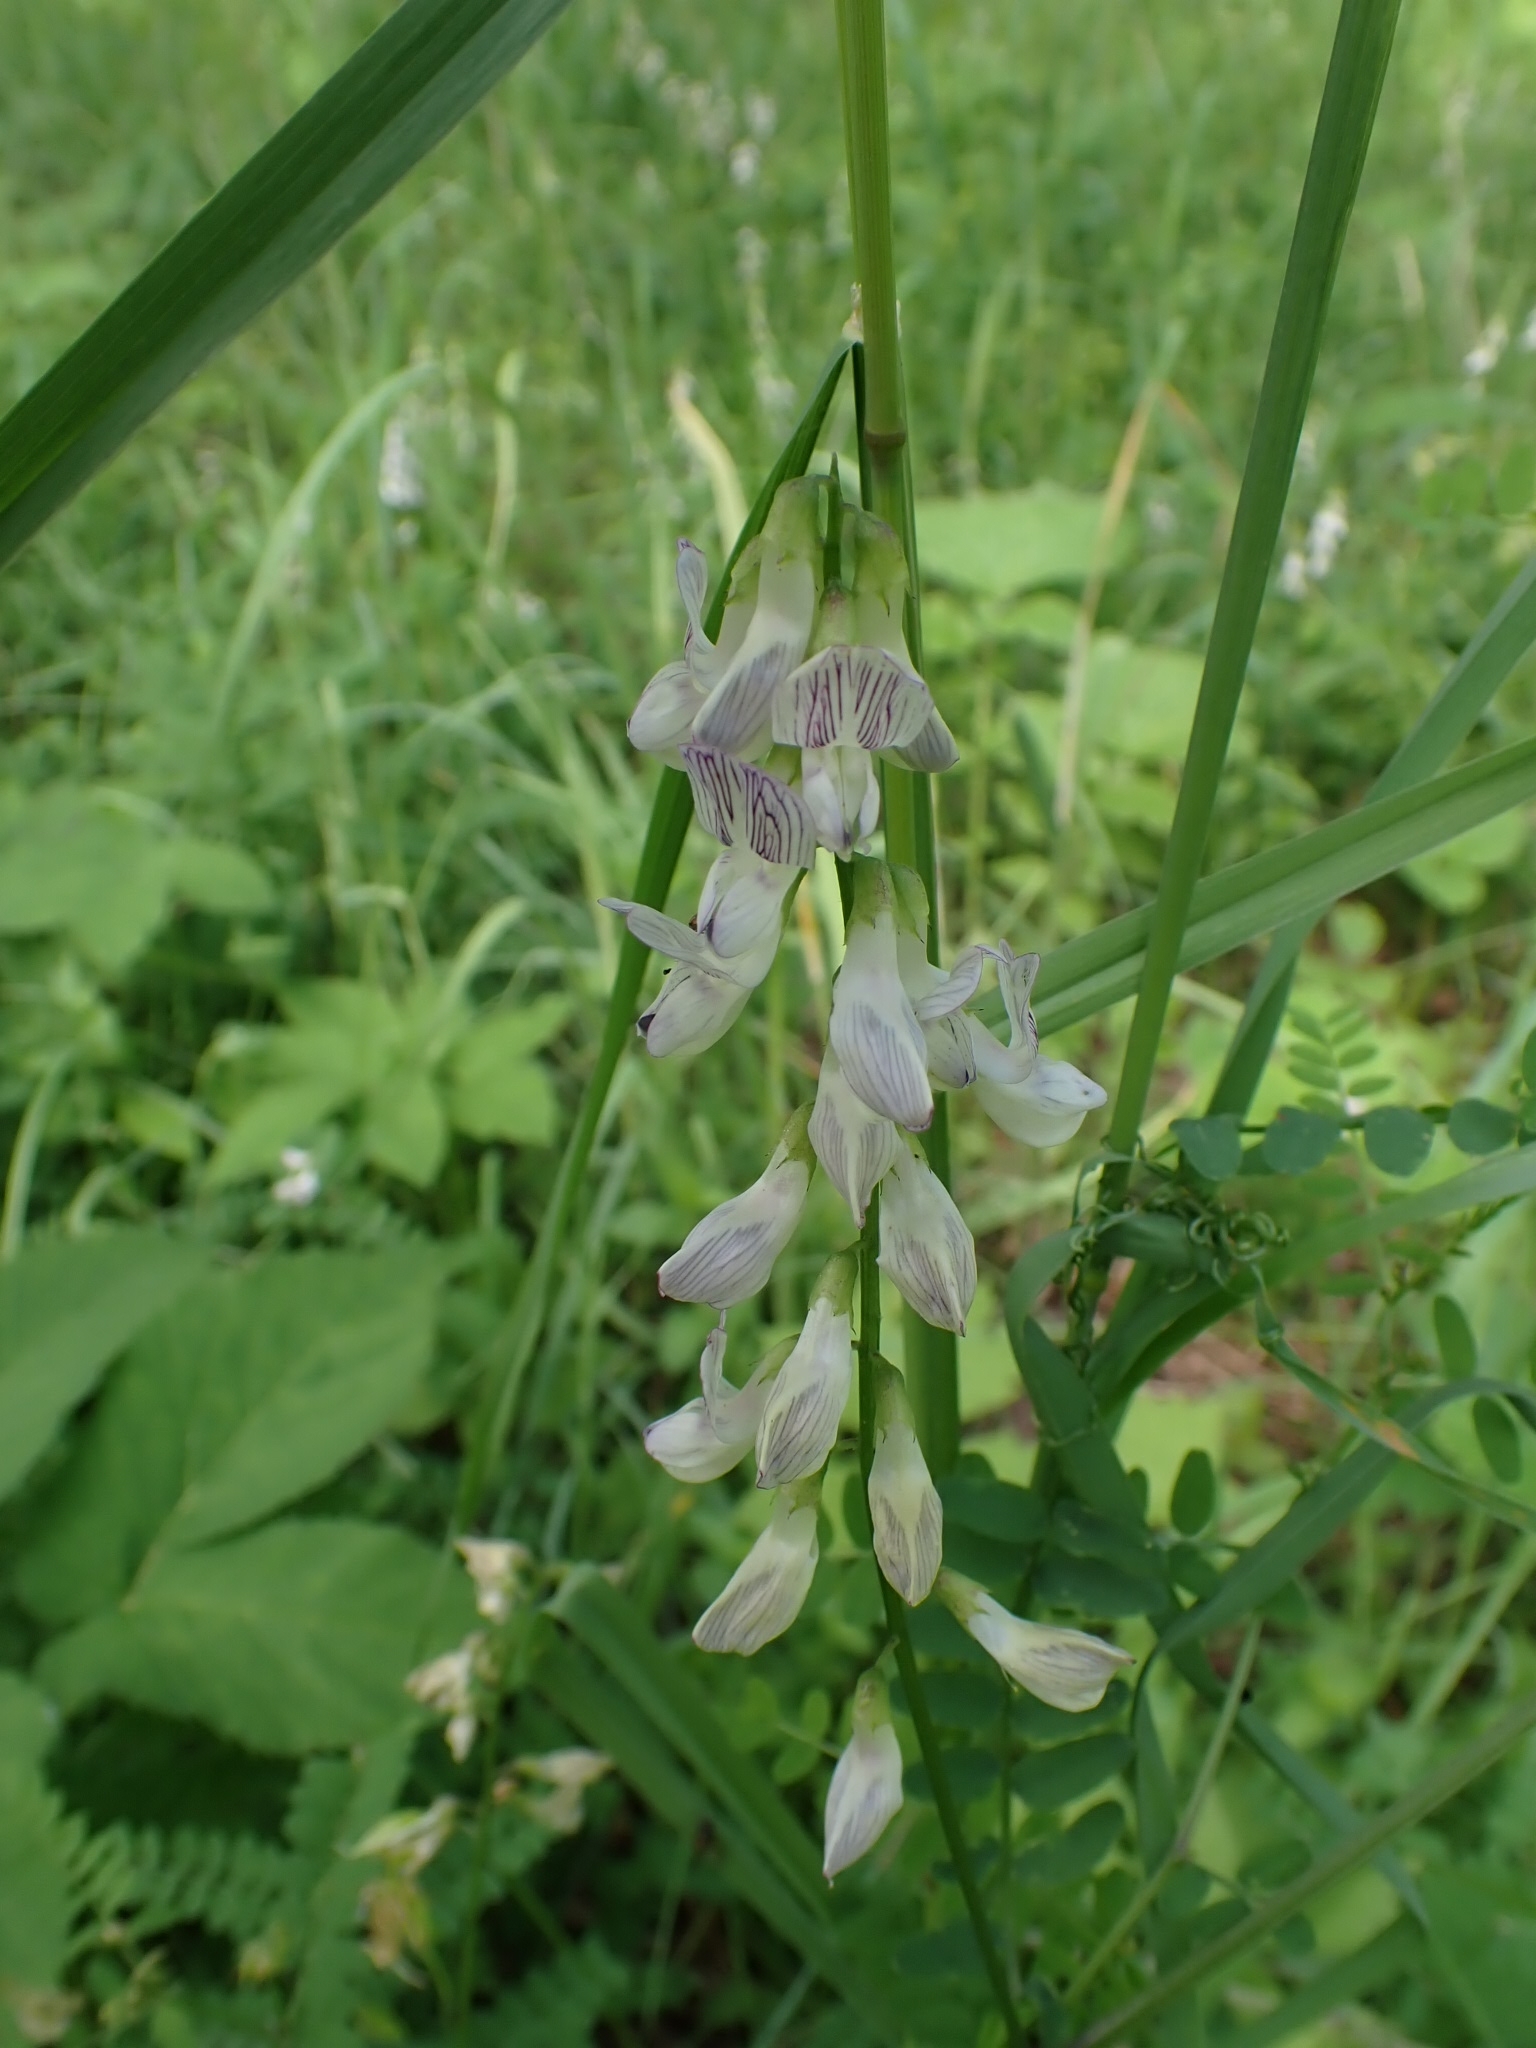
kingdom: Plantae
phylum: Tracheophyta
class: Magnoliopsida
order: Fabales
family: Fabaceae
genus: Vicia
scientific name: Vicia sylvatica
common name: Wood vetch
